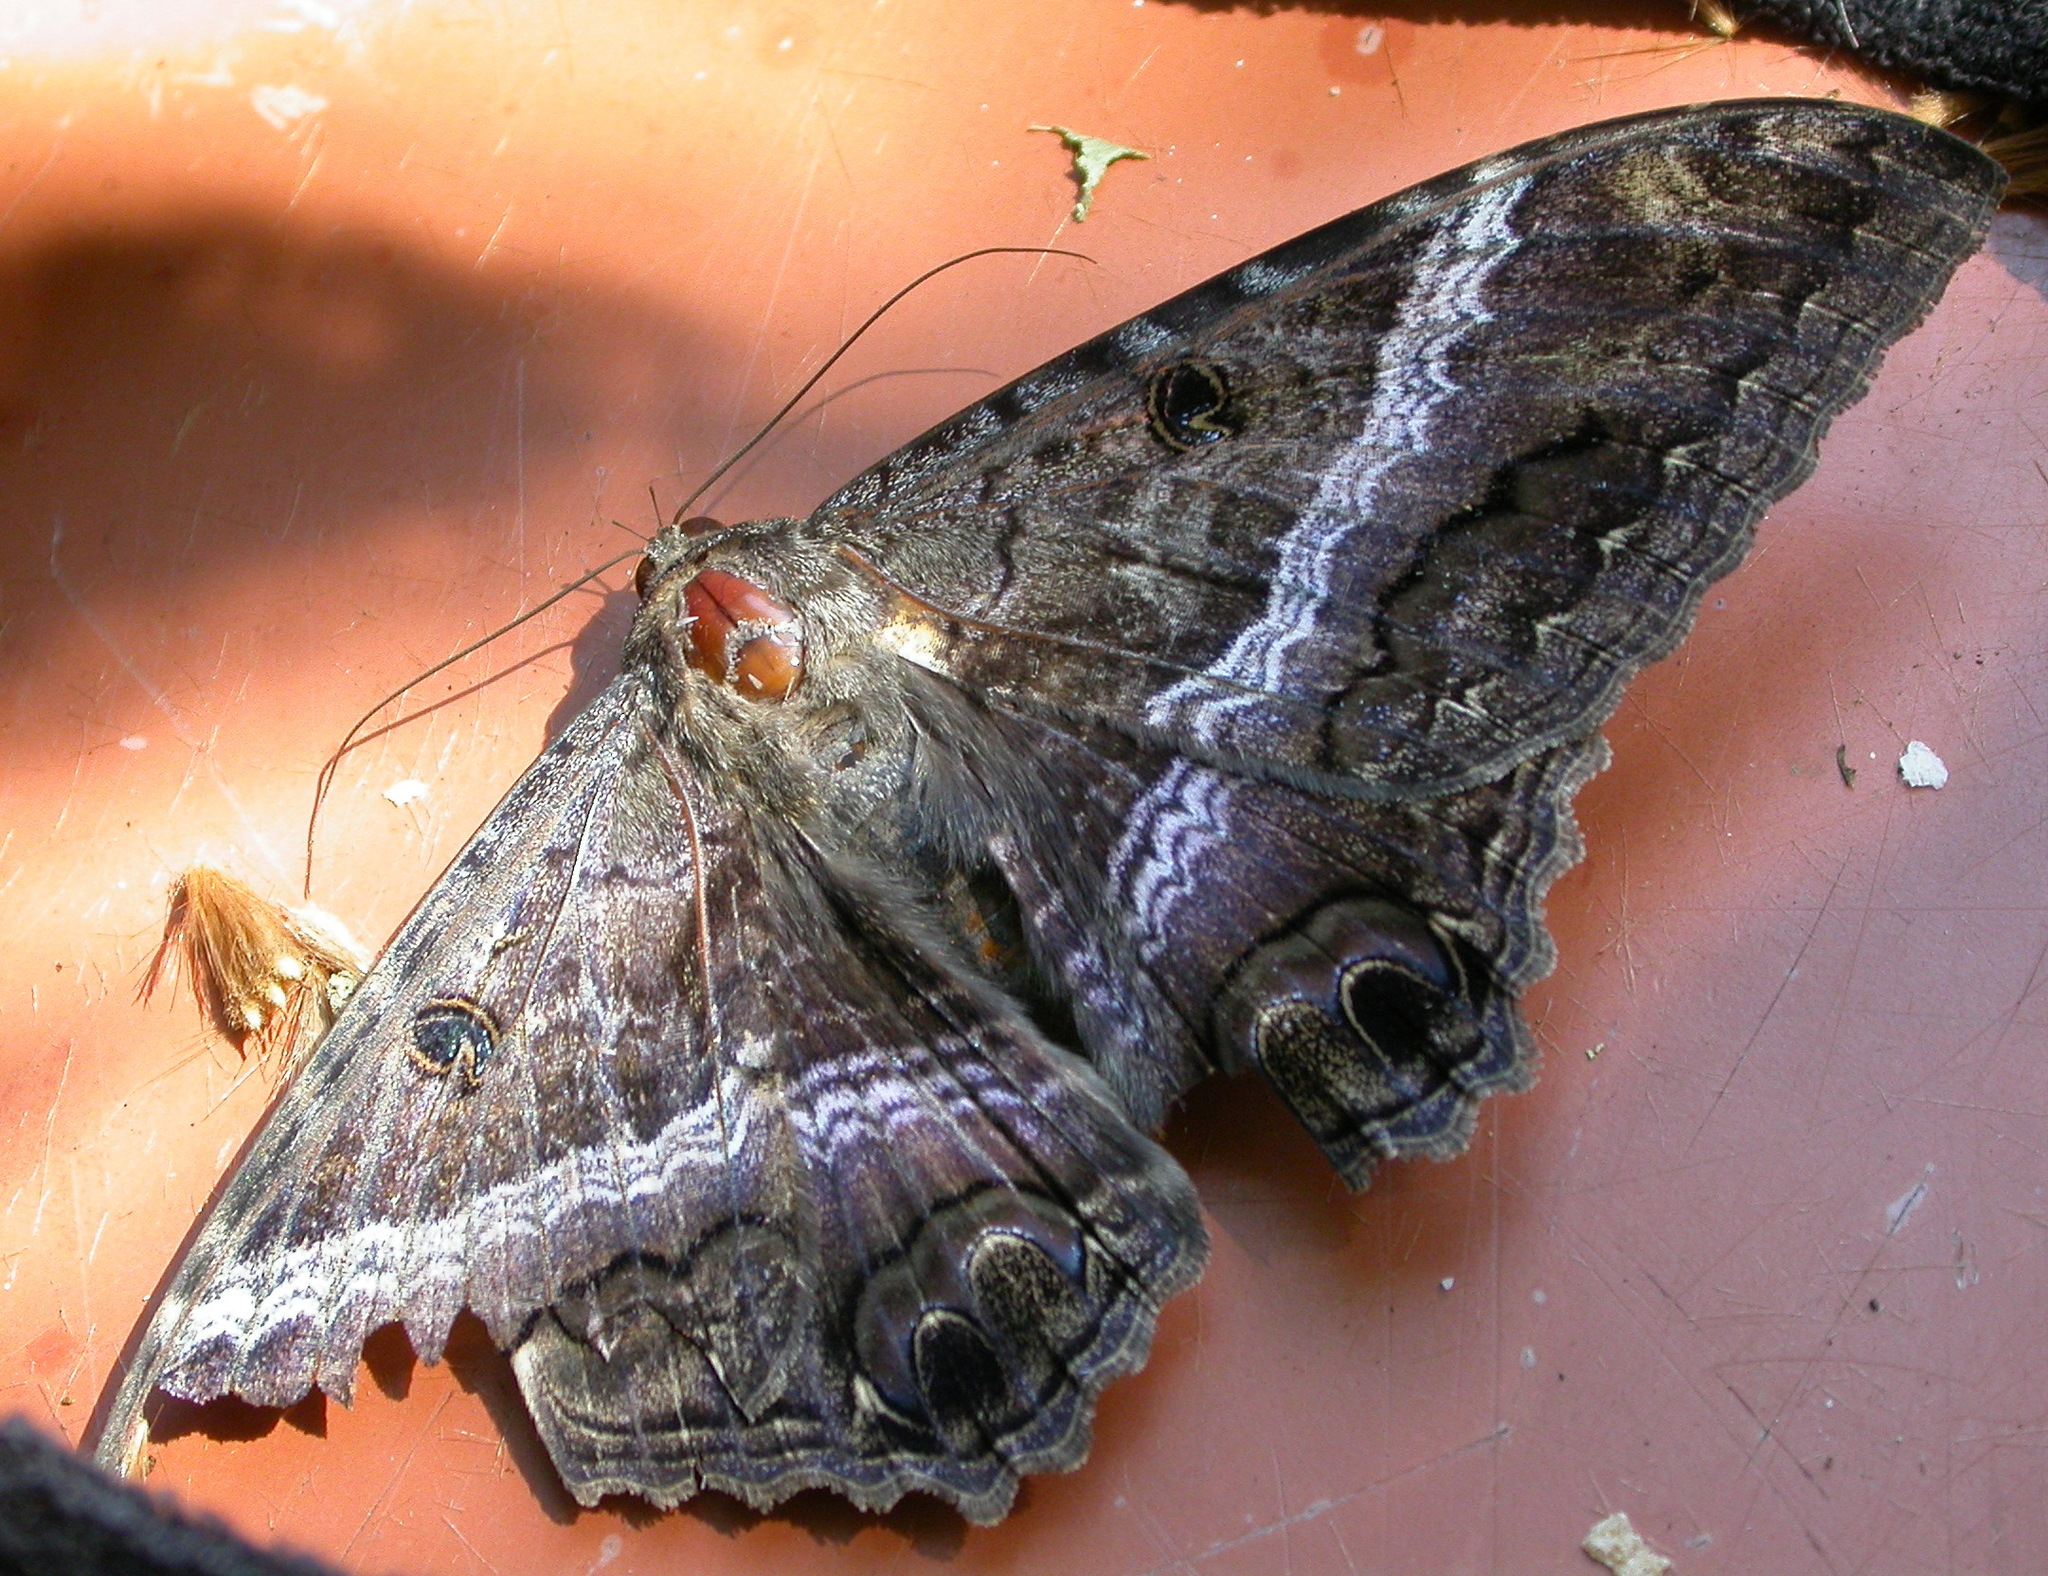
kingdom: Animalia
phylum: Arthropoda
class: Insecta
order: Lepidoptera
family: Erebidae
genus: Ascalapha
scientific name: Ascalapha odorata
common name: Black witch
